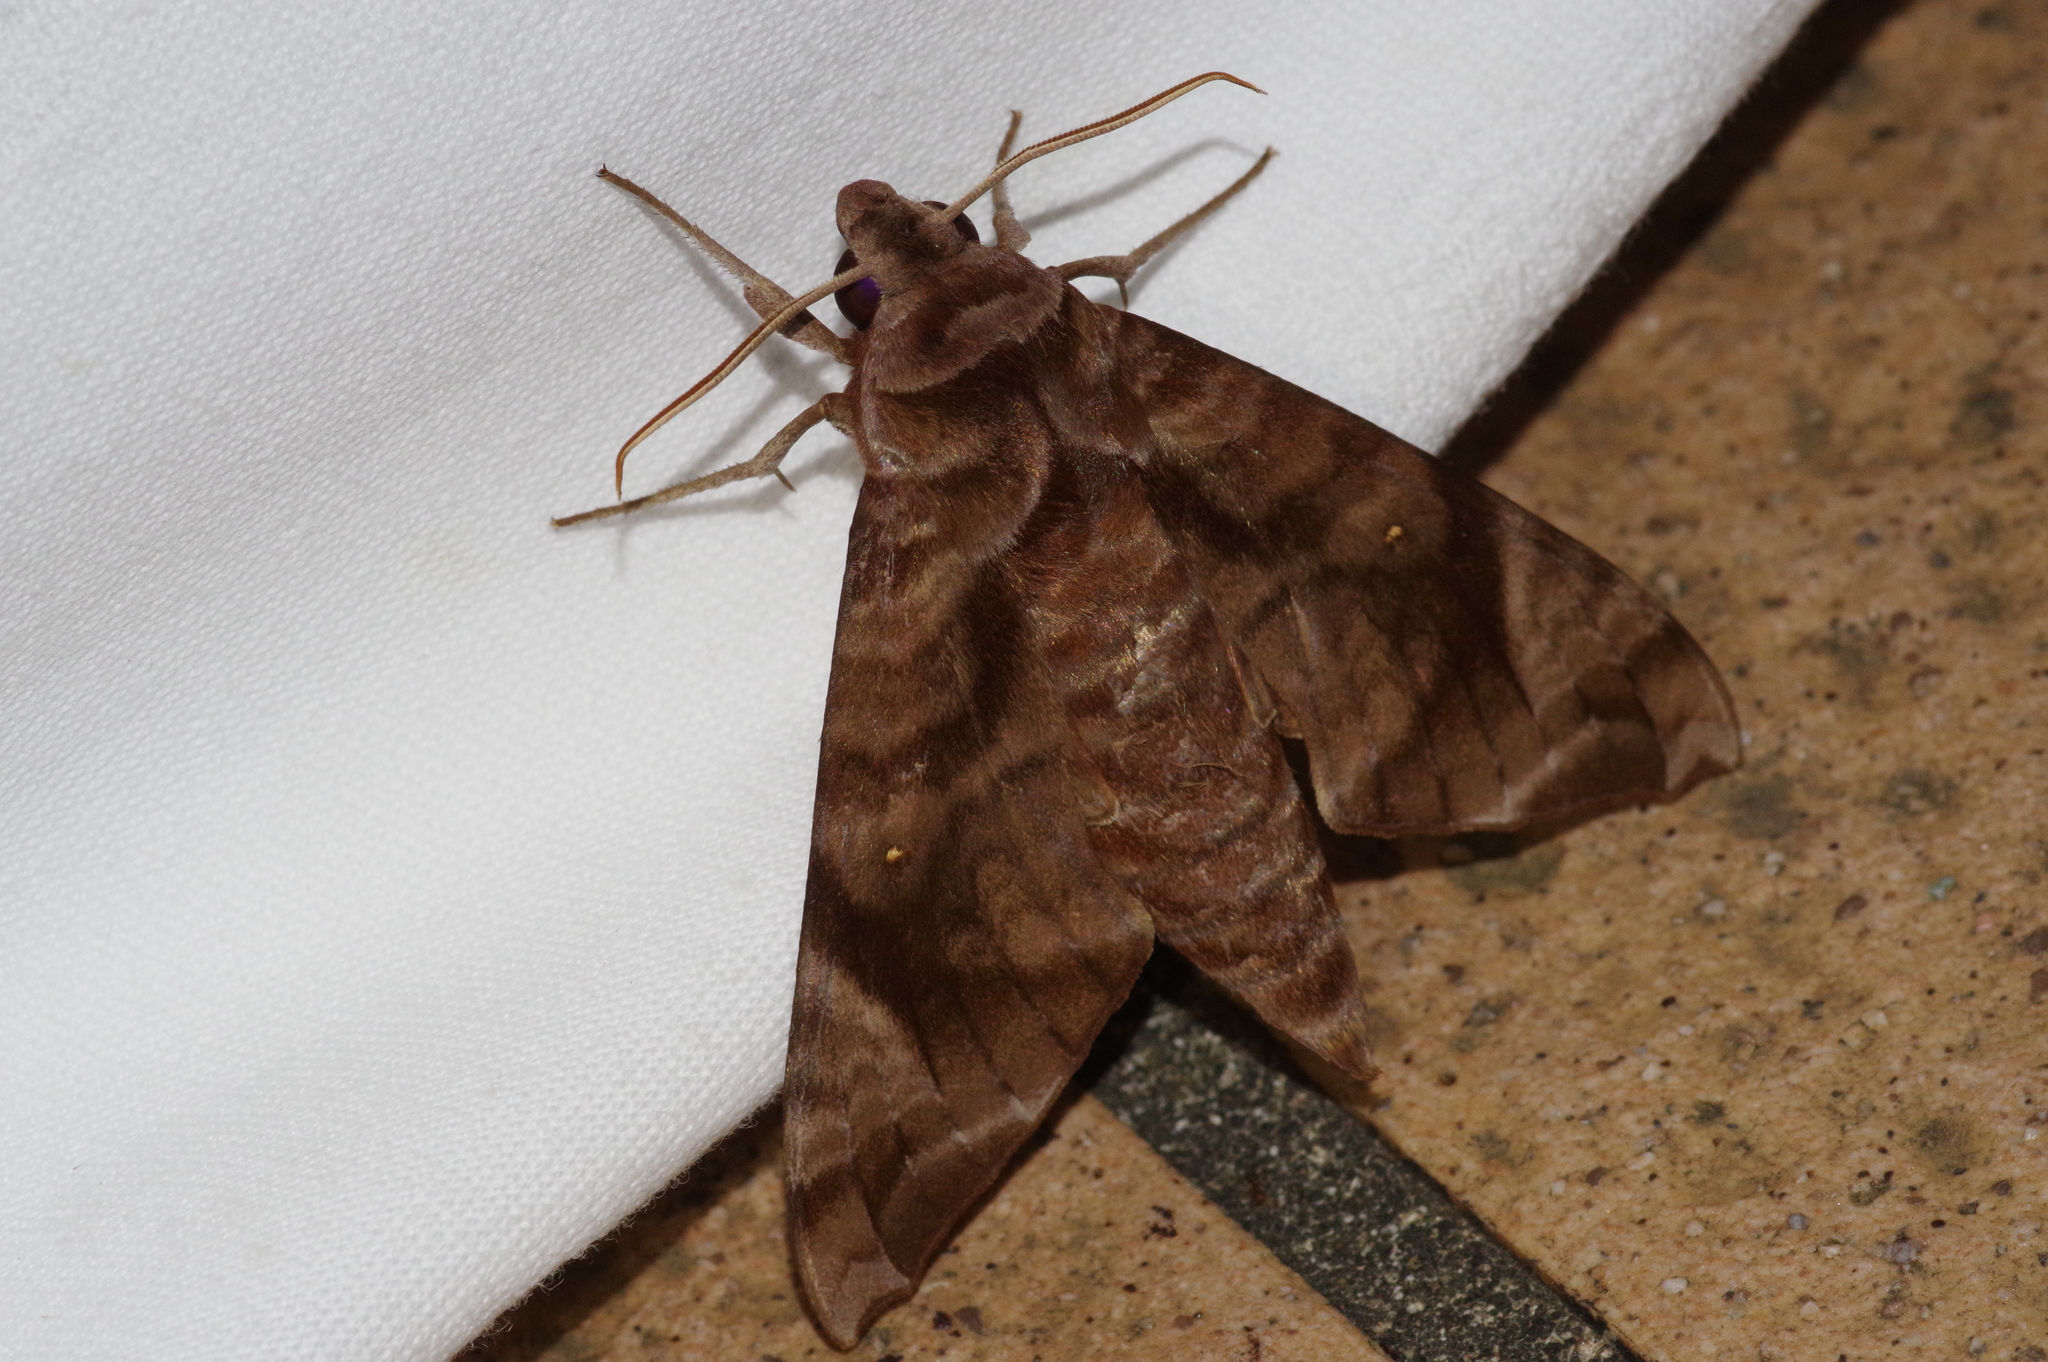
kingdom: Animalia
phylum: Arthropoda
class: Insecta
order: Lepidoptera
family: Sphingidae
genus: Acosmeryx
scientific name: Acosmeryx castanea
